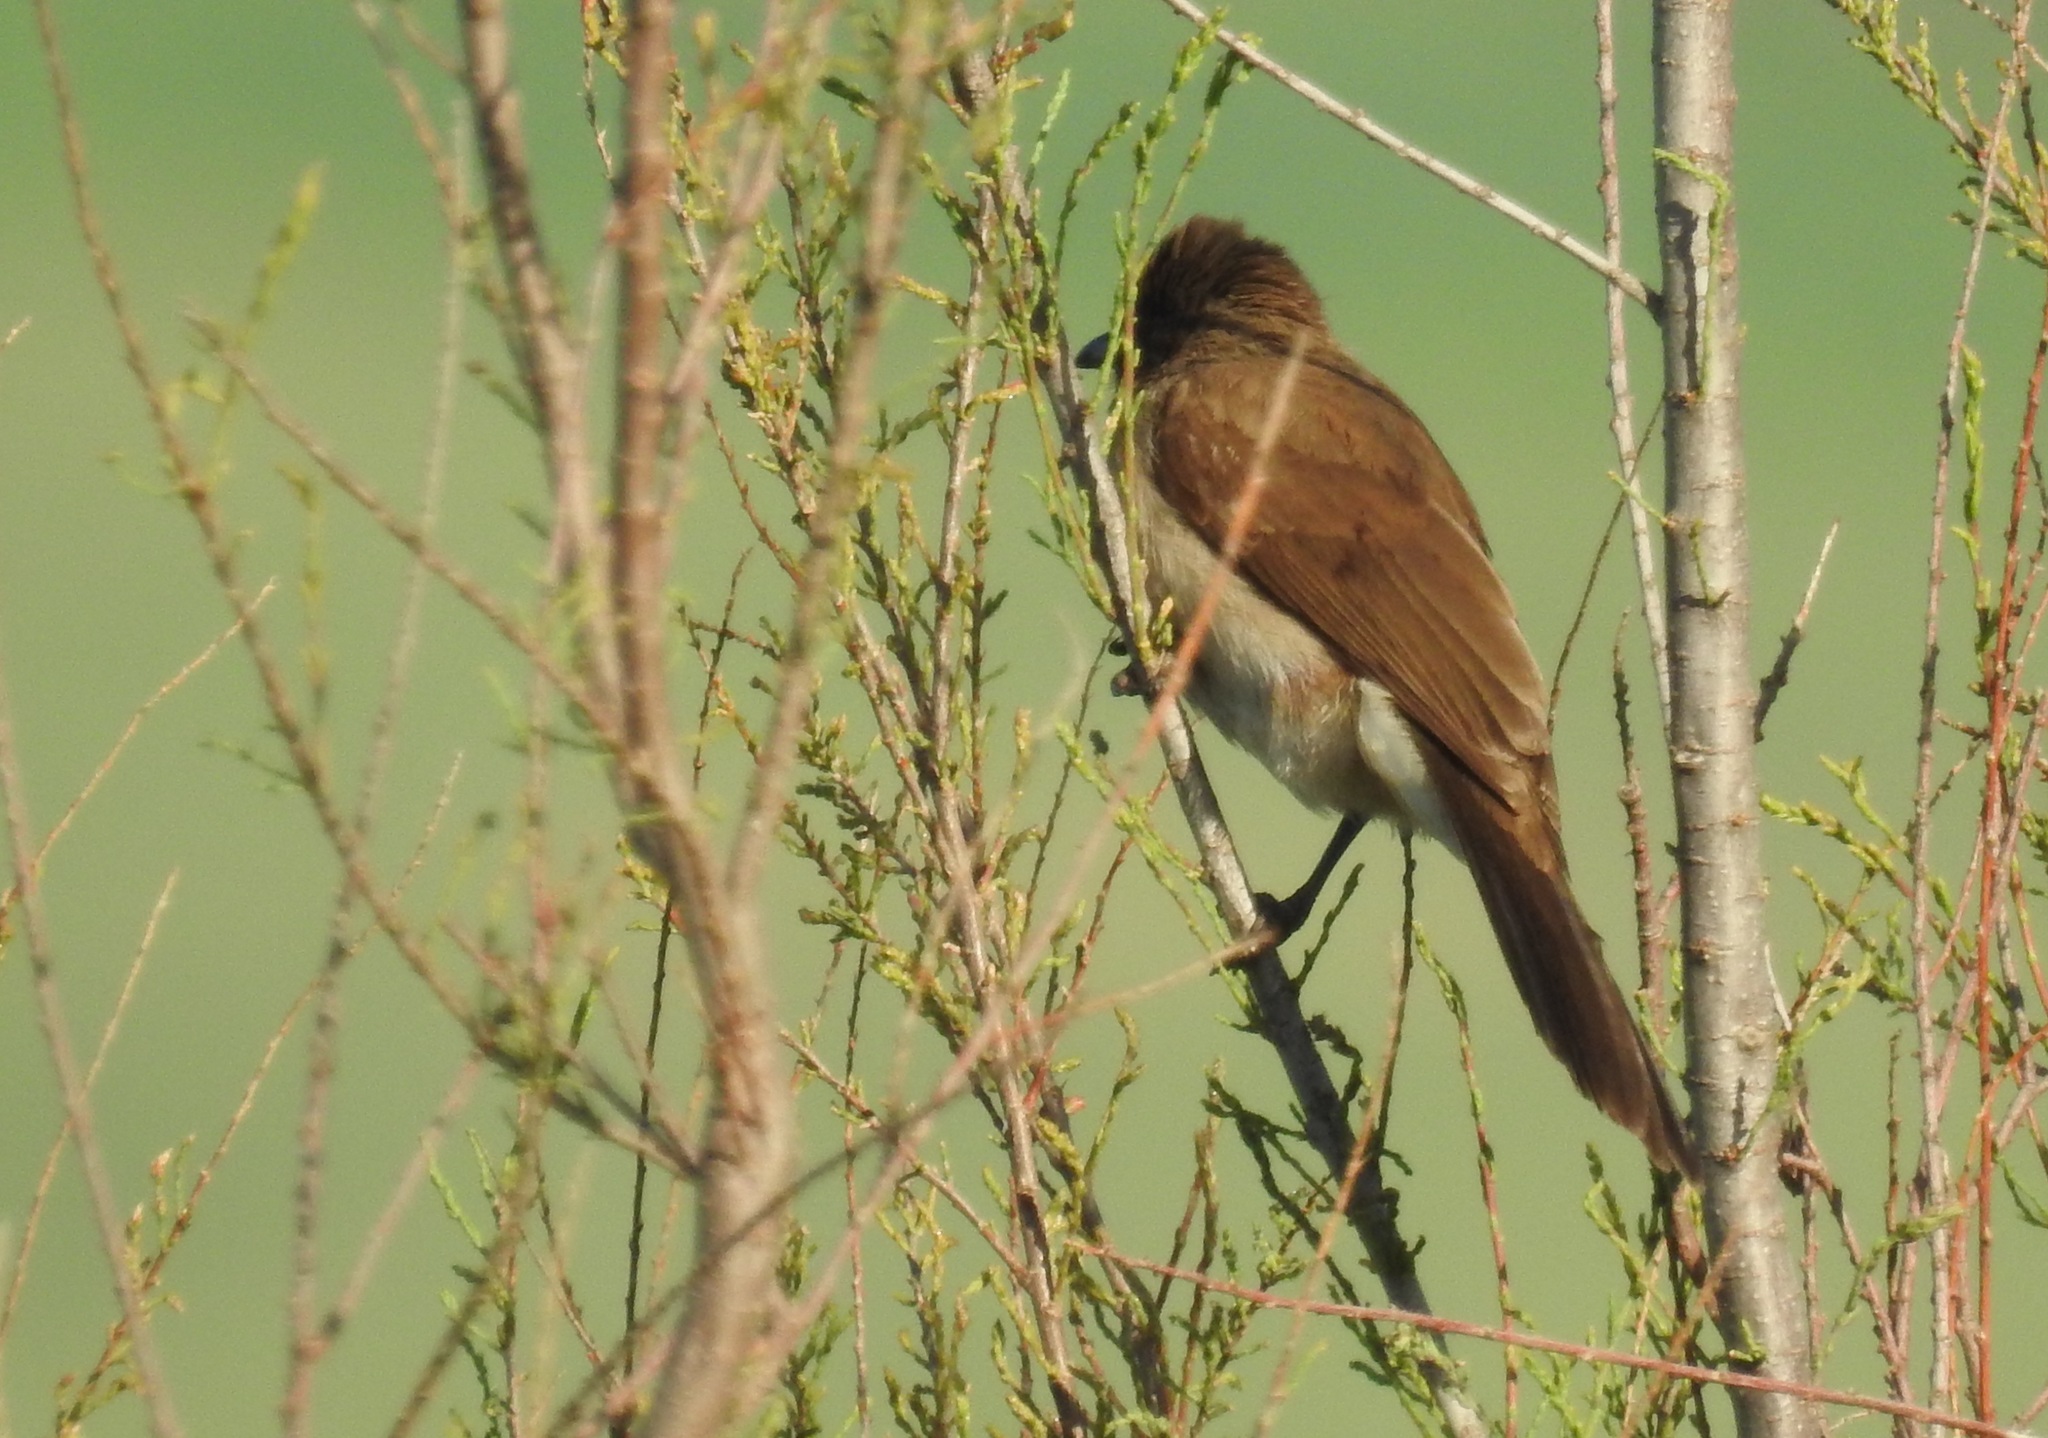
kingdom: Animalia
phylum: Chordata
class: Aves
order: Passeriformes
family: Pycnonotidae
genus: Pycnonotus
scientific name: Pycnonotus barbatus
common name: Common bulbul
